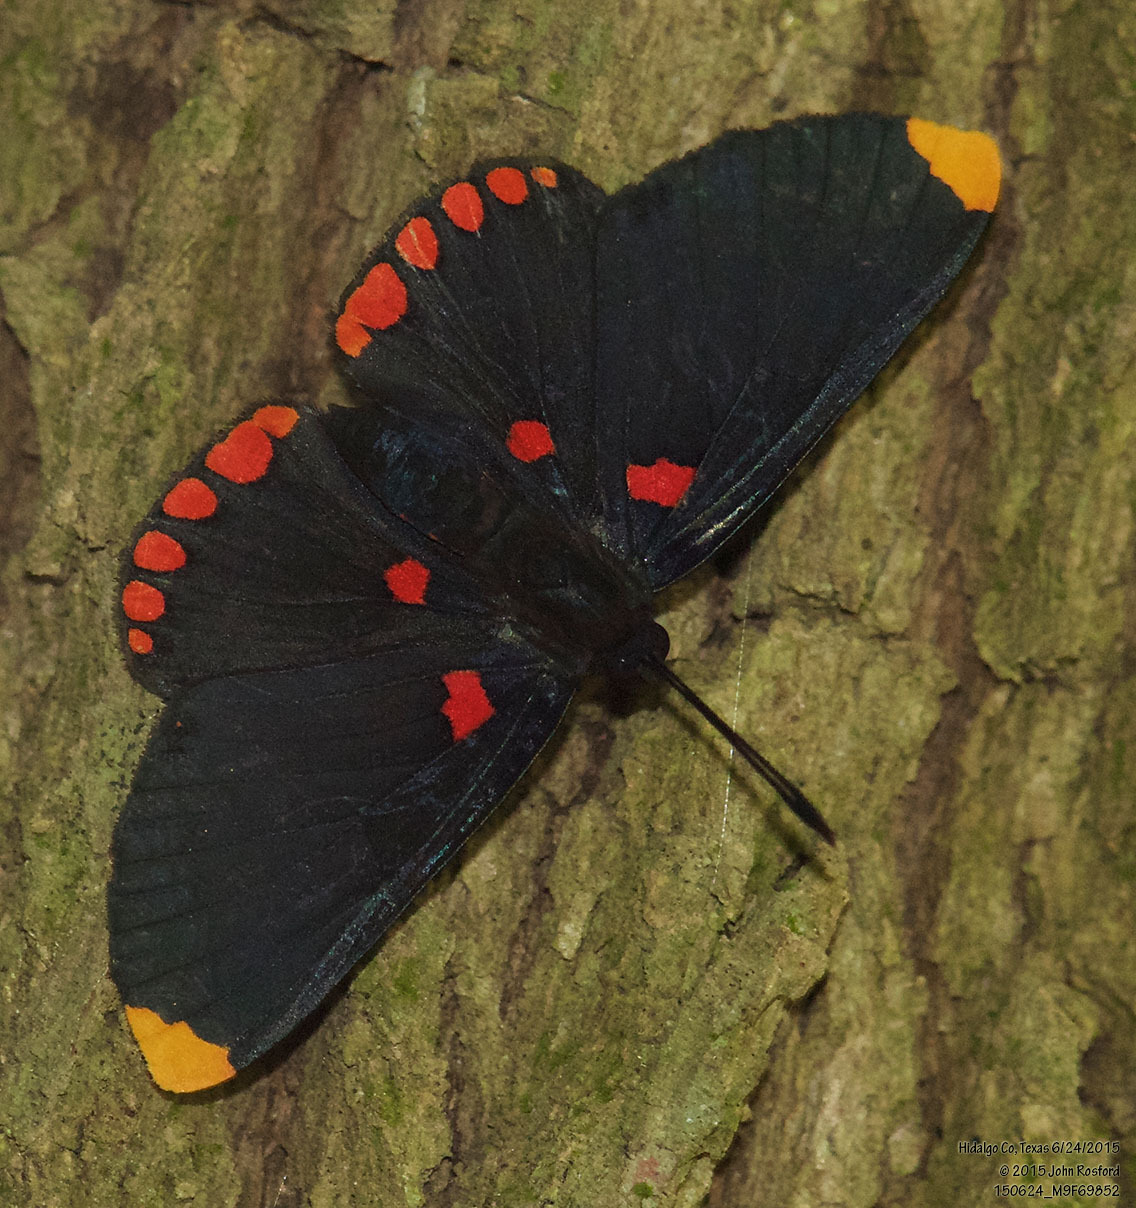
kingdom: Animalia
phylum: Arthropoda
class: Insecta
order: Lepidoptera
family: Lycaenidae
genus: Melanis
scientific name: Melanis pixe
